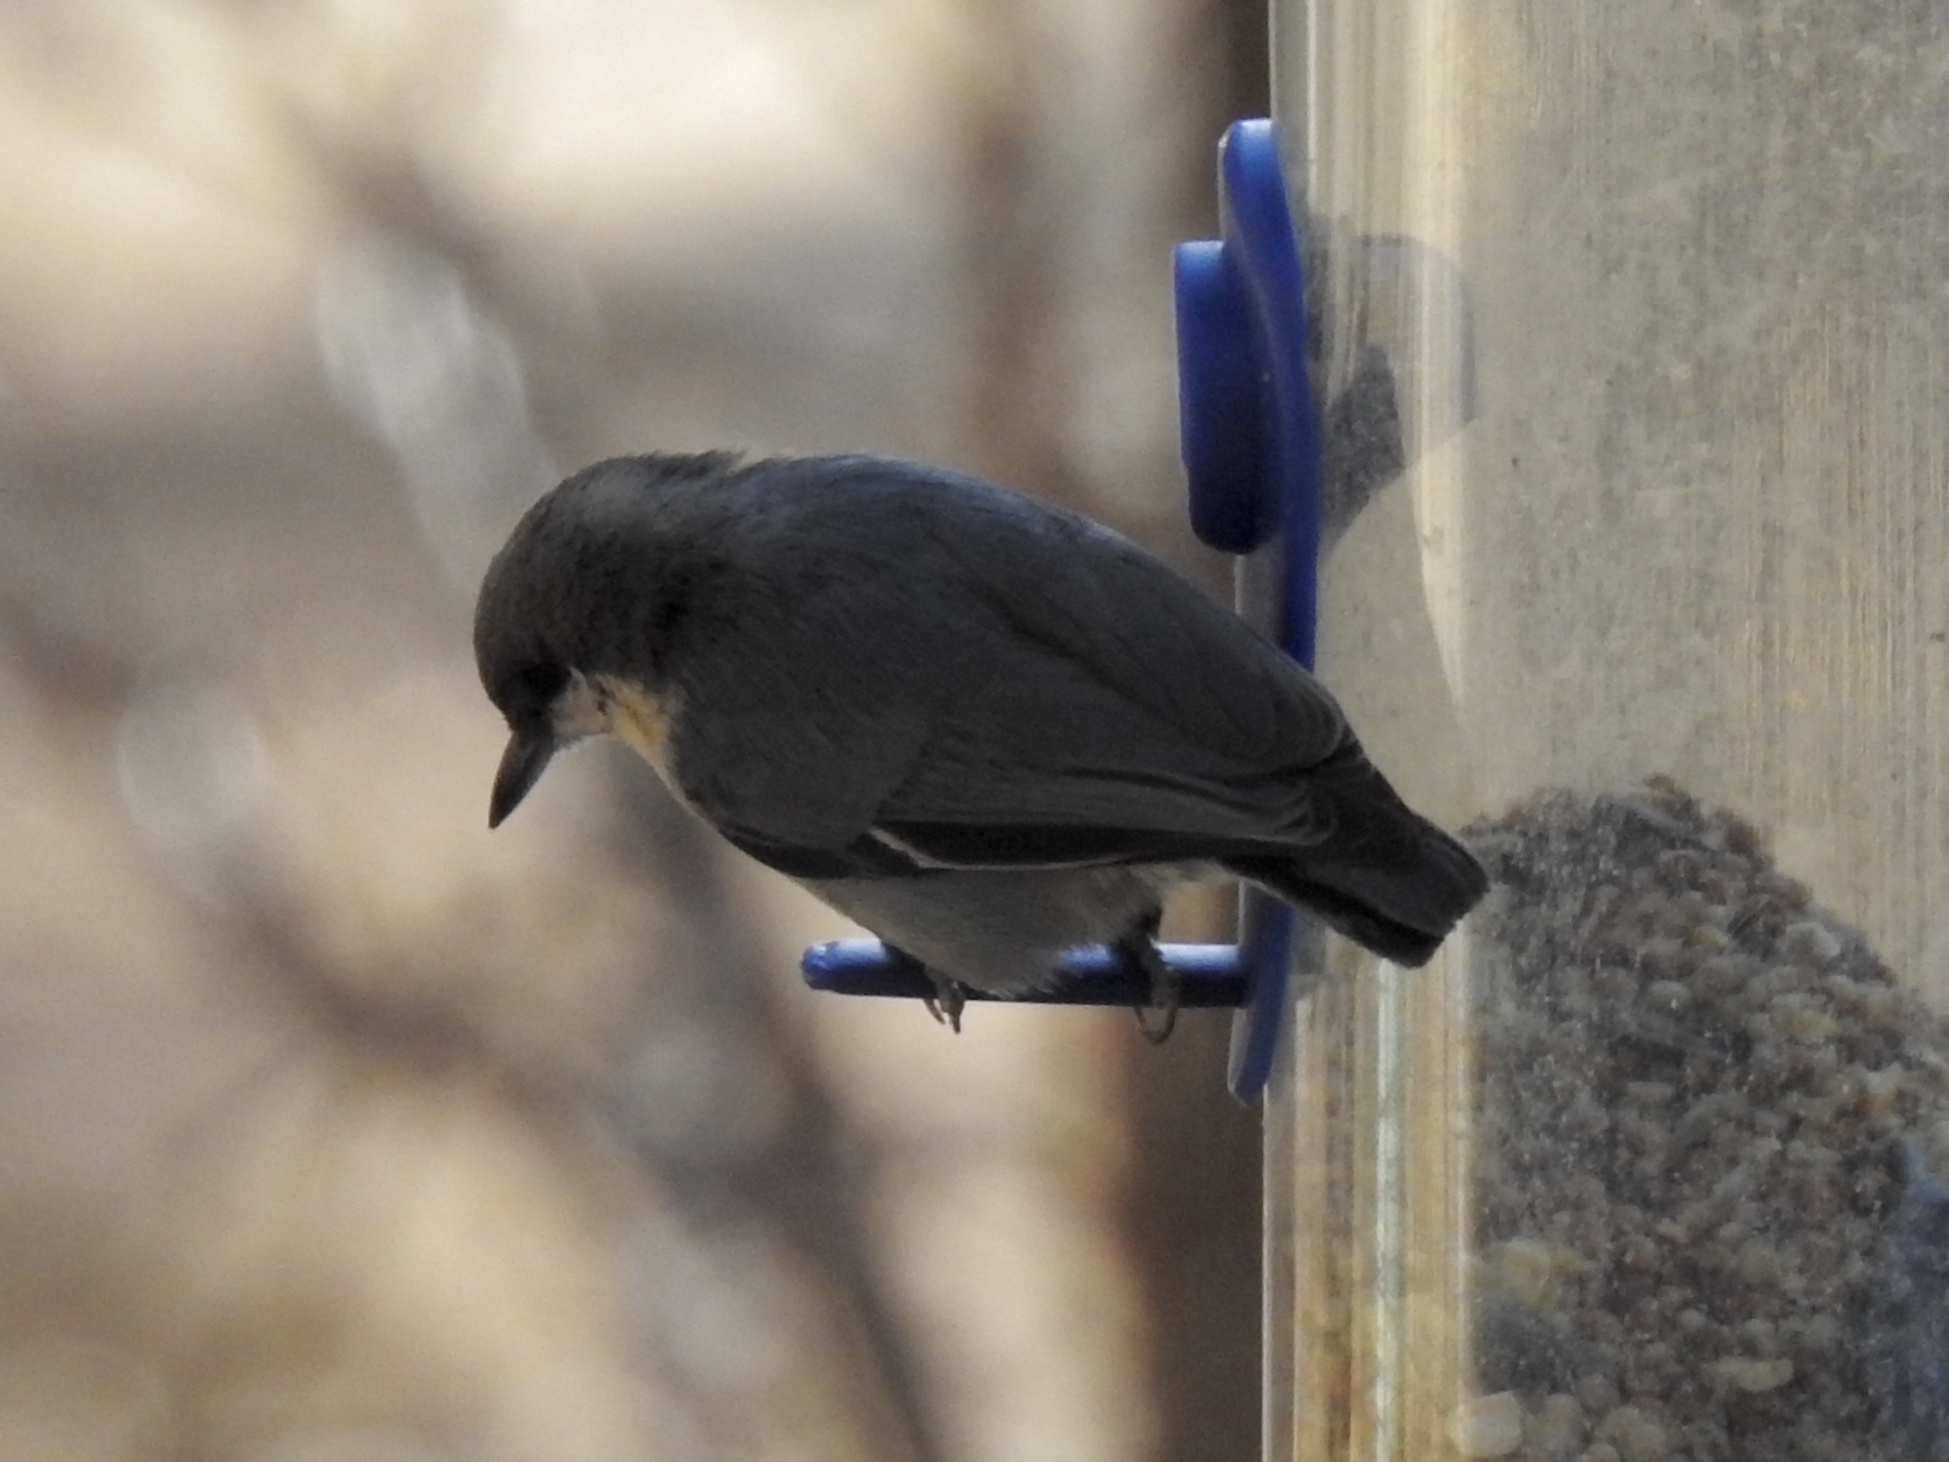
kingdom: Animalia
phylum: Chordata
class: Aves
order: Passeriformes
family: Sittidae
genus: Sitta
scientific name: Sitta pygmaea
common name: Pygmy nuthatch
